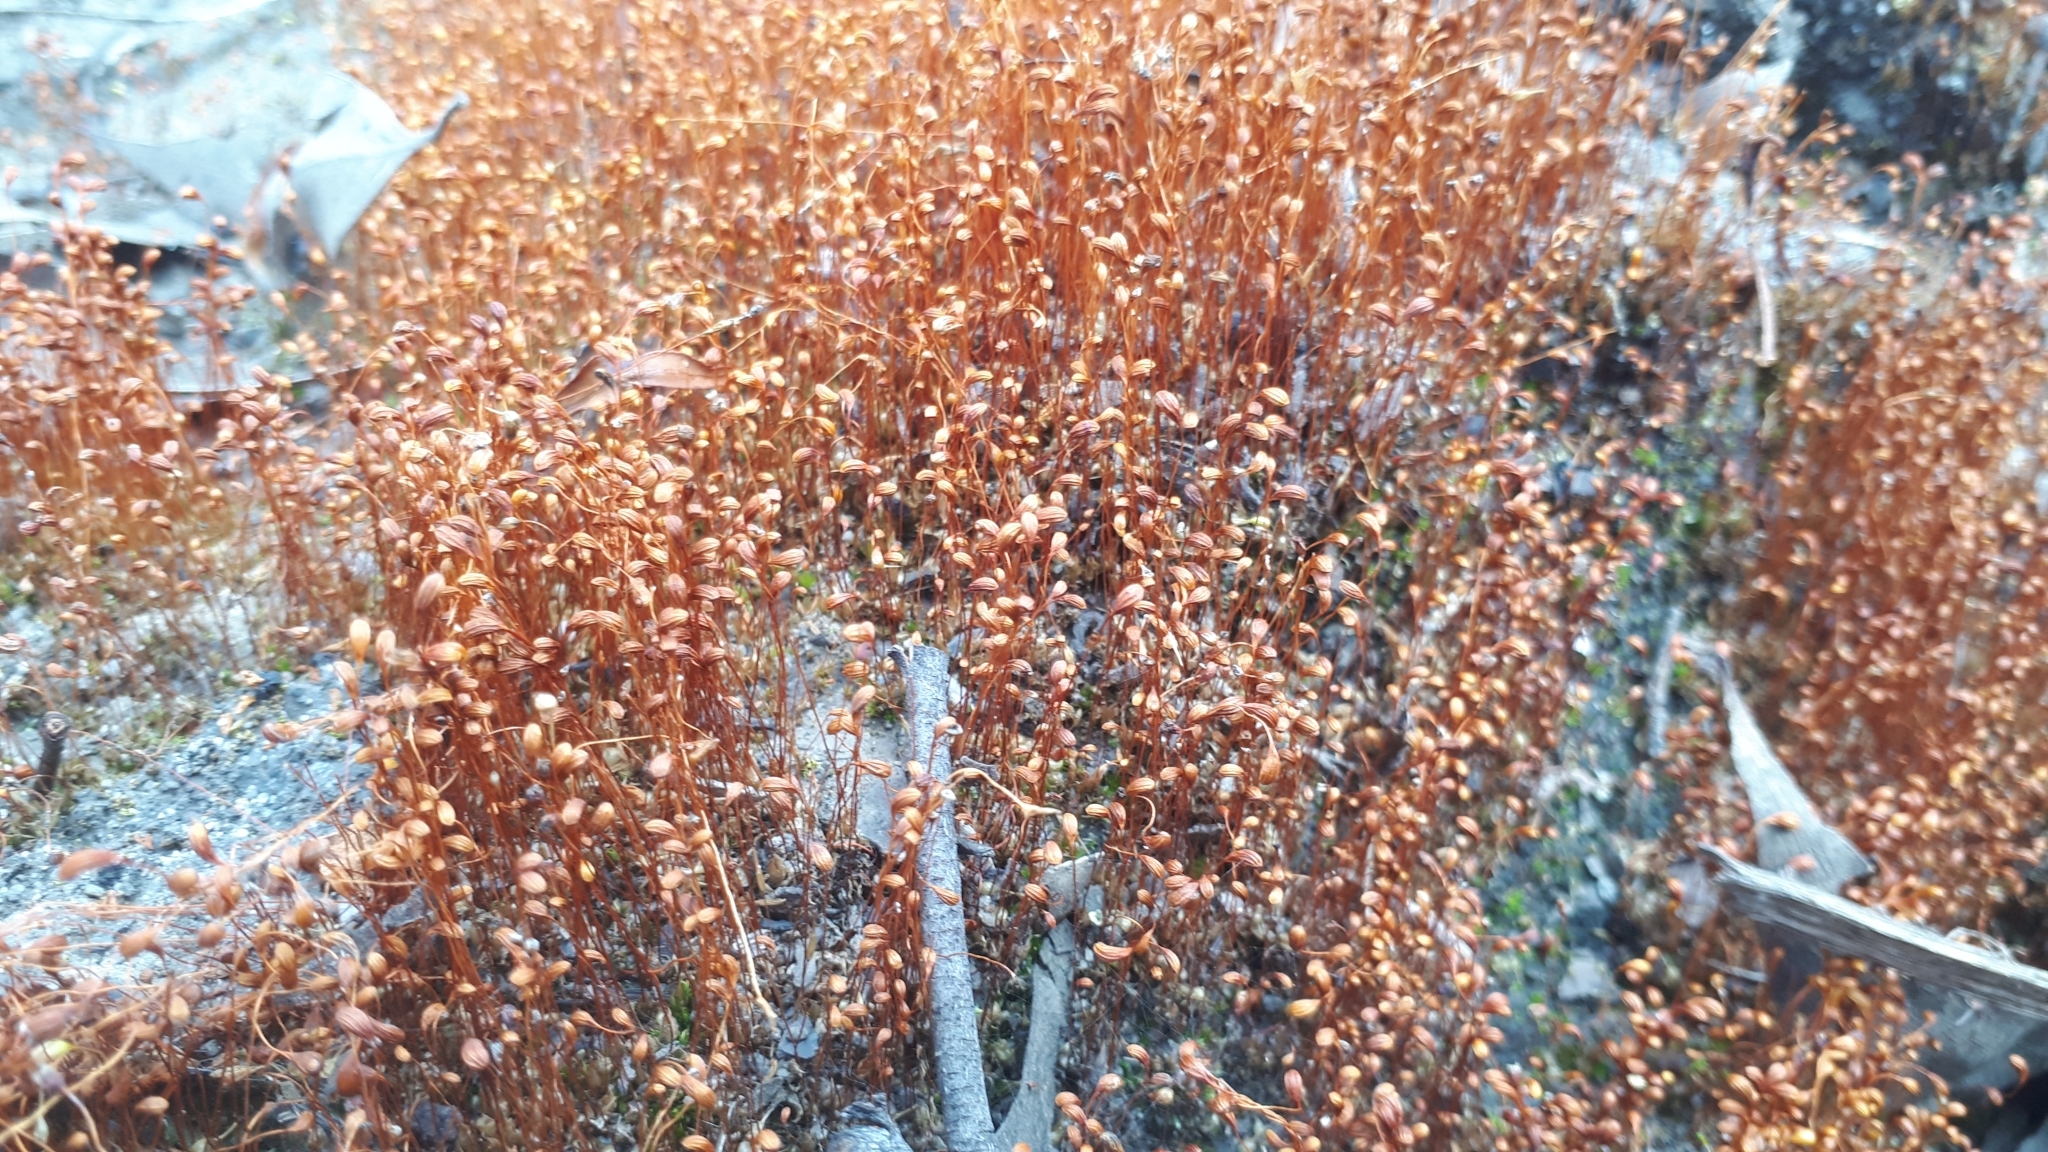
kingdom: Plantae
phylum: Bryophyta
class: Bryopsida
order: Funariales
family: Funariaceae
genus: Funaria
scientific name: Funaria hygrometrica
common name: Common cord moss
